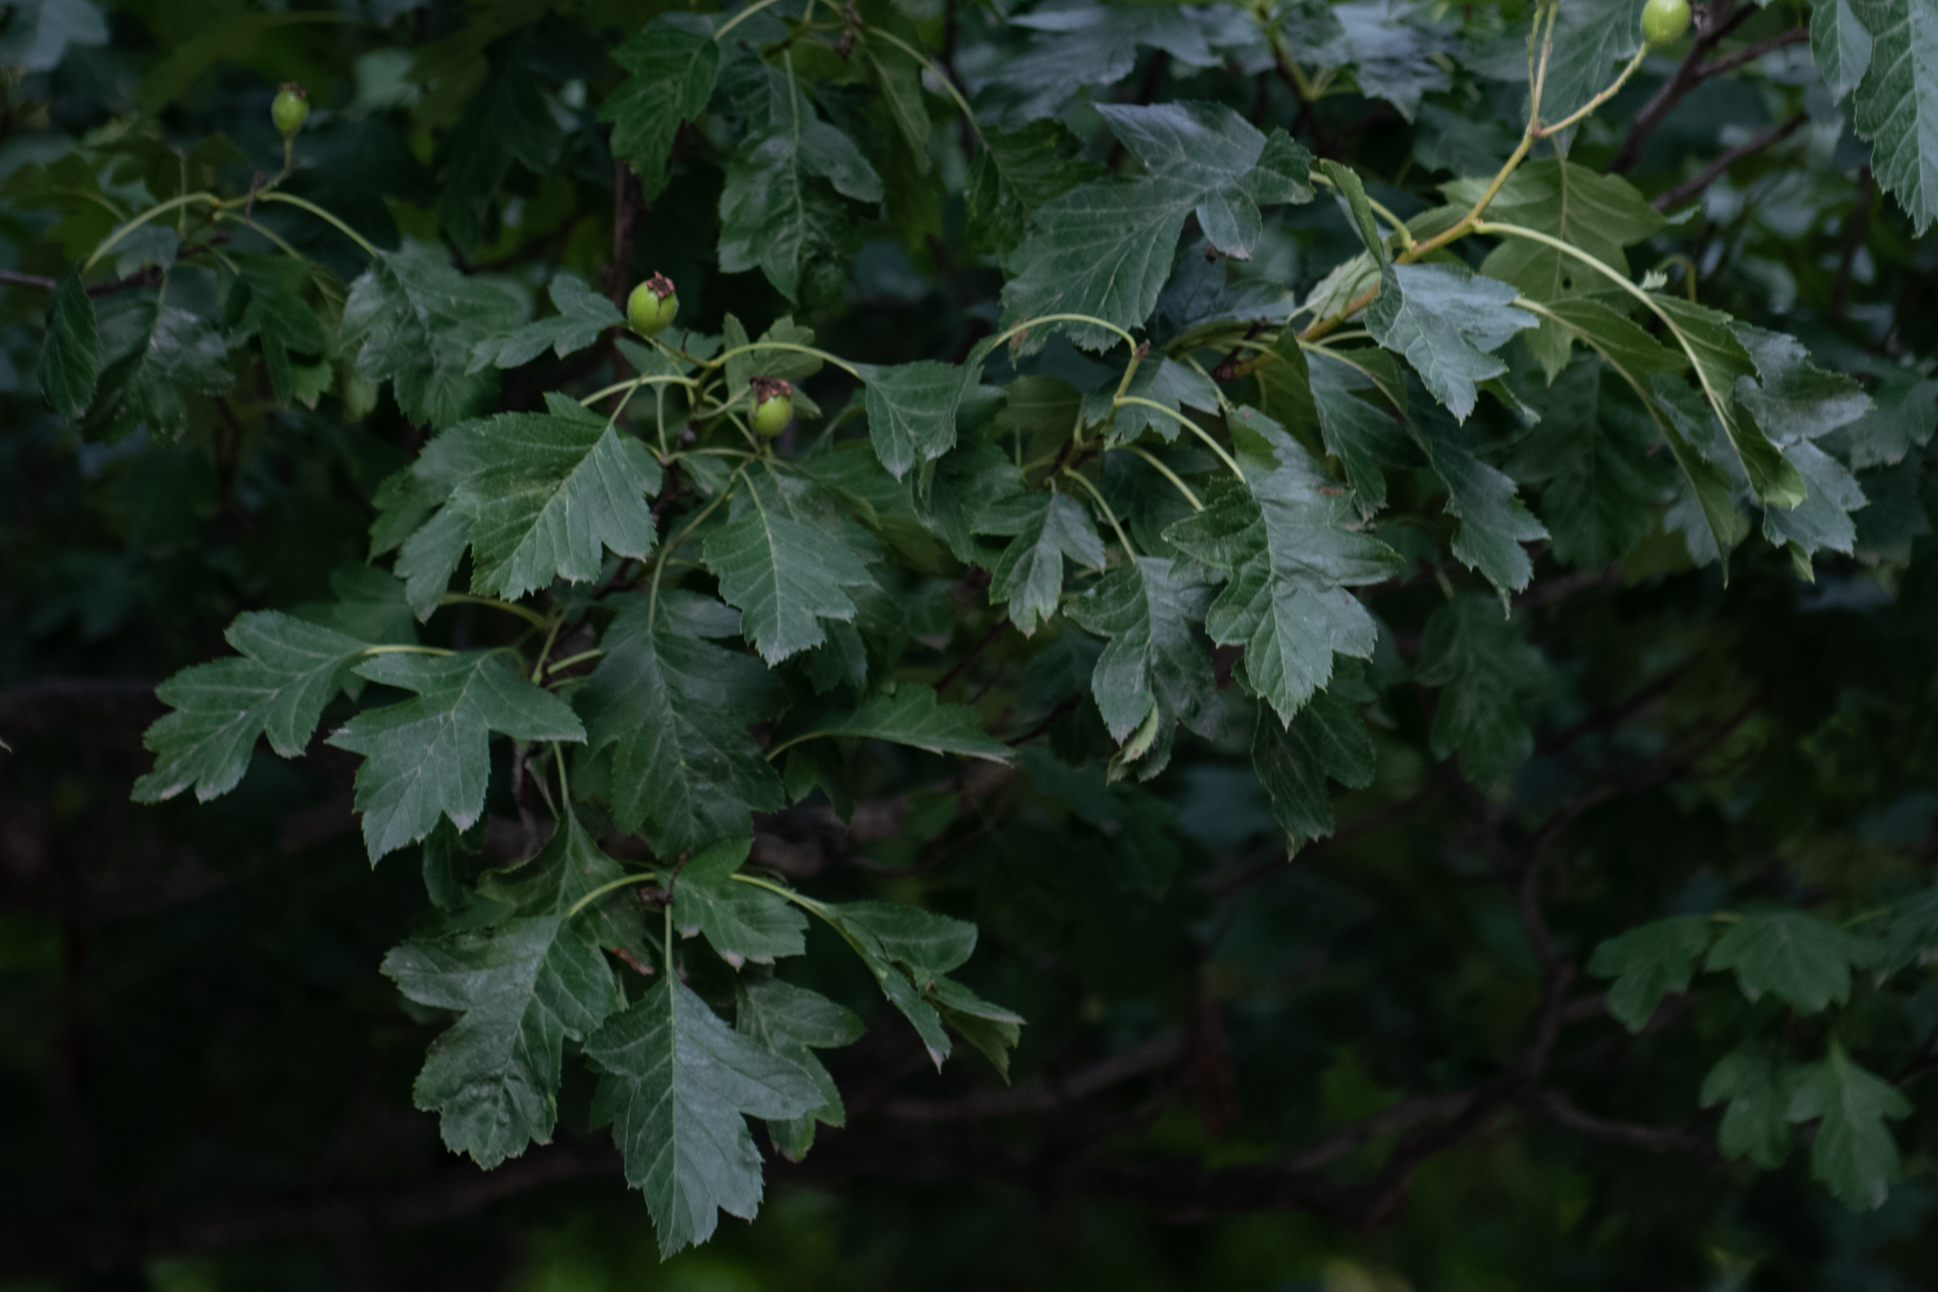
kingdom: Plantae
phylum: Tracheophyta
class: Magnoliopsida
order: Rosales
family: Rosaceae
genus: Crataegus
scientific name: Crataegus pinnatifida
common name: Chinese haw
